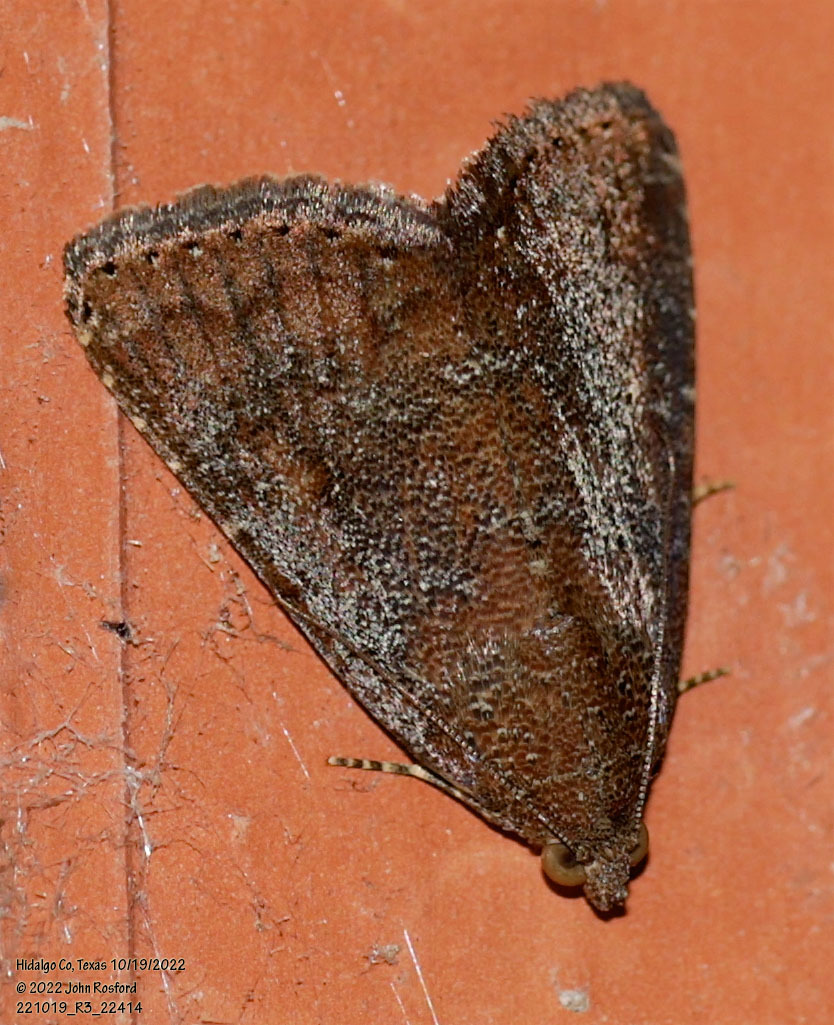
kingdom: Animalia
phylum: Arthropoda
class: Insecta
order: Lepidoptera
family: Noctuidae
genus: Amyna
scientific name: Amyna stricta
